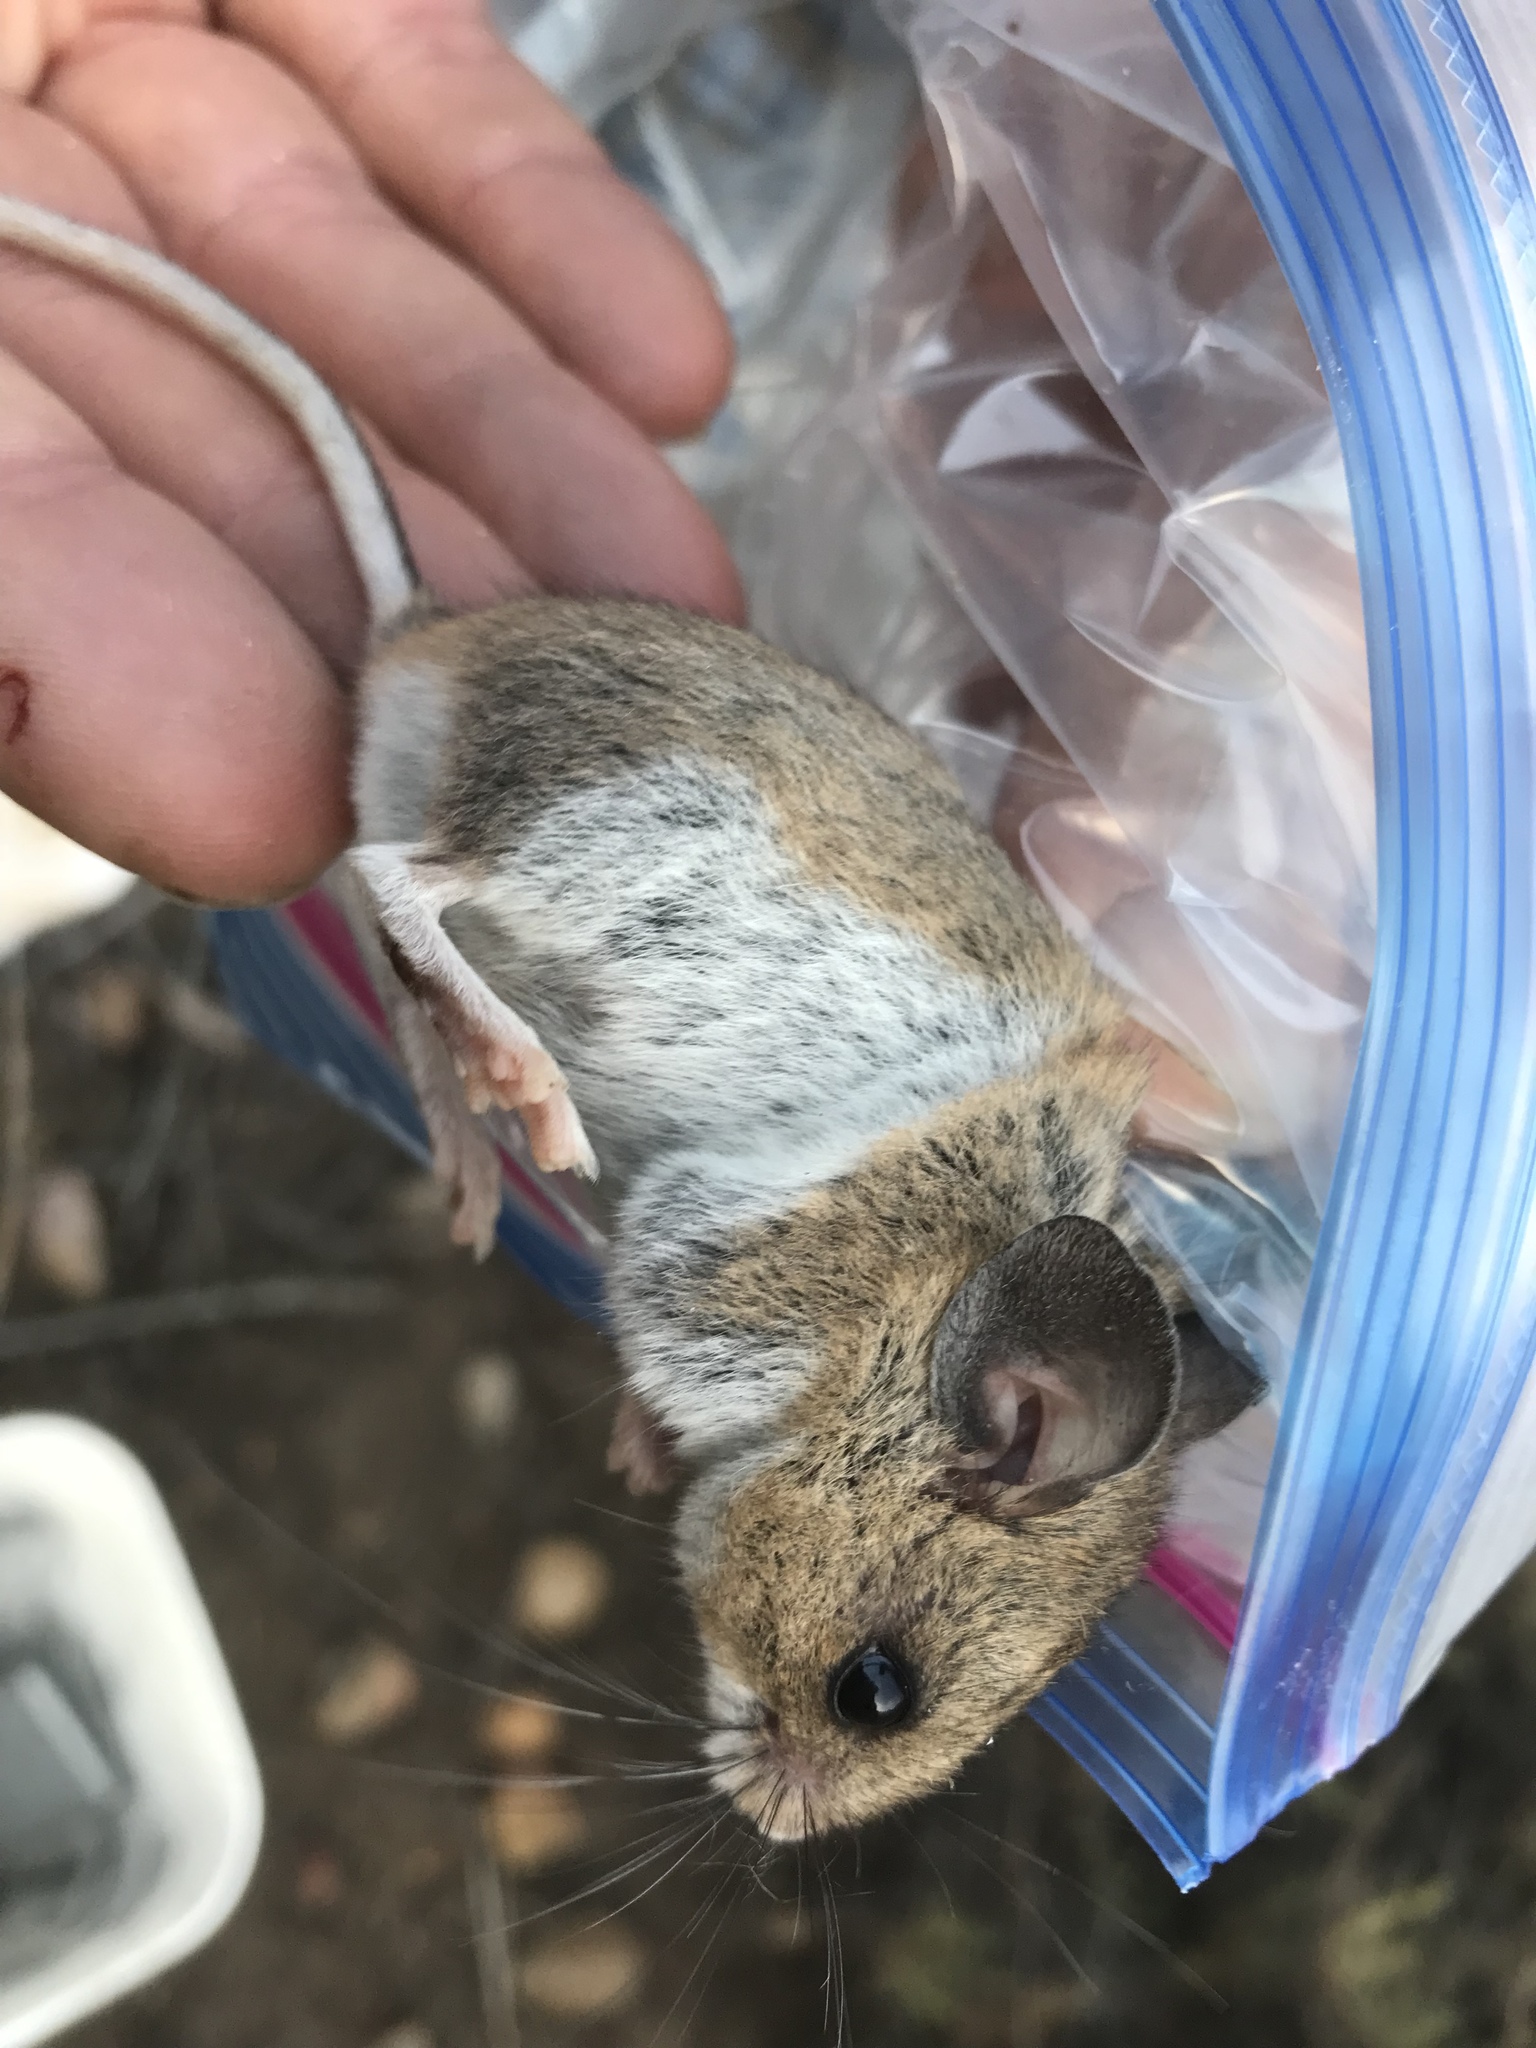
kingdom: Animalia
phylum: Chordata
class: Mammalia
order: Rodentia
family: Cricetidae
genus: Peromyscus
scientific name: Peromyscus maniculatus
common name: Deer mouse
